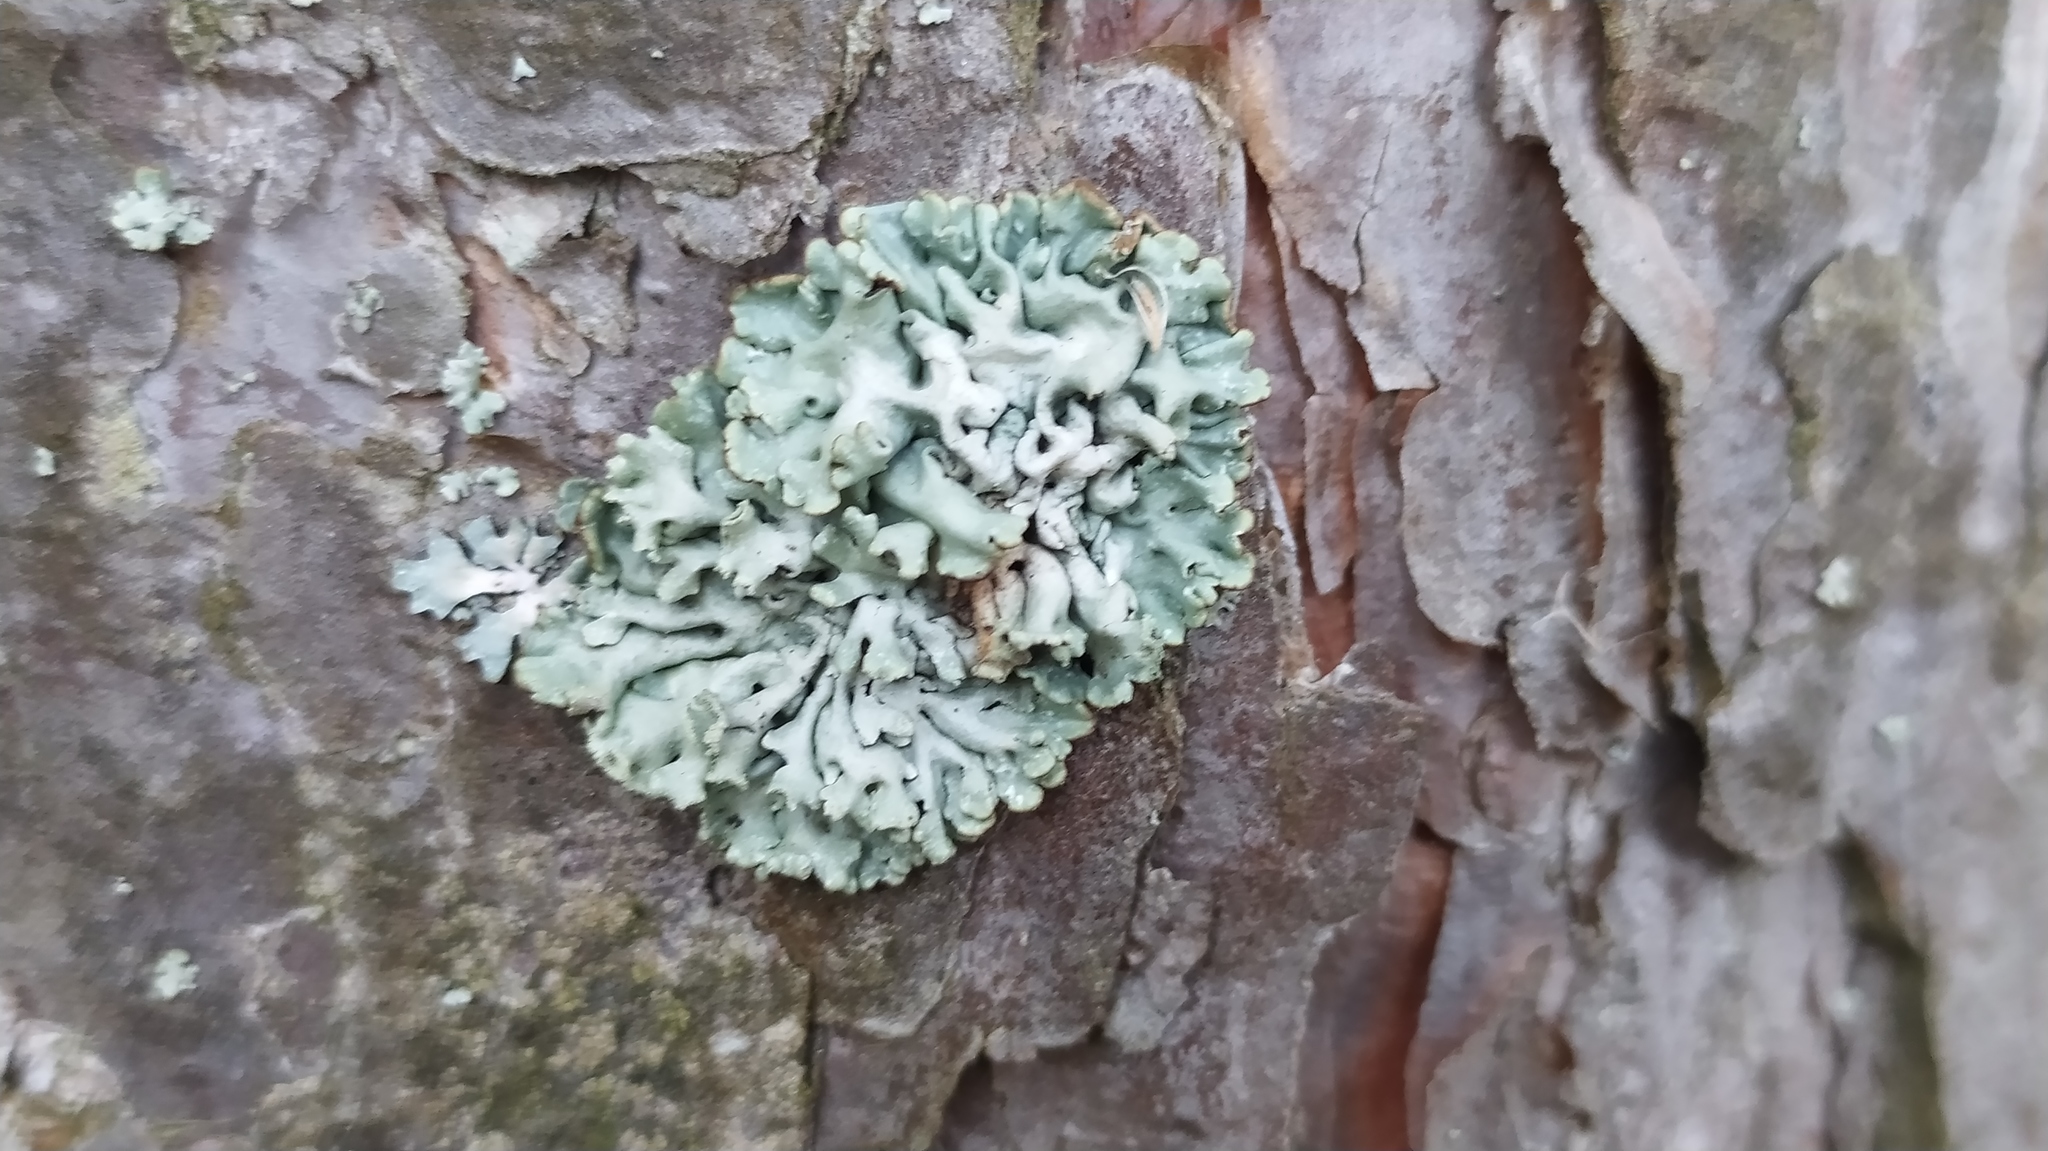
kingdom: Fungi
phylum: Ascomycota
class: Lecanoromycetes
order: Lecanorales
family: Parmeliaceae
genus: Hypogymnia
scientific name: Hypogymnia physodes
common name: Dark crottle
